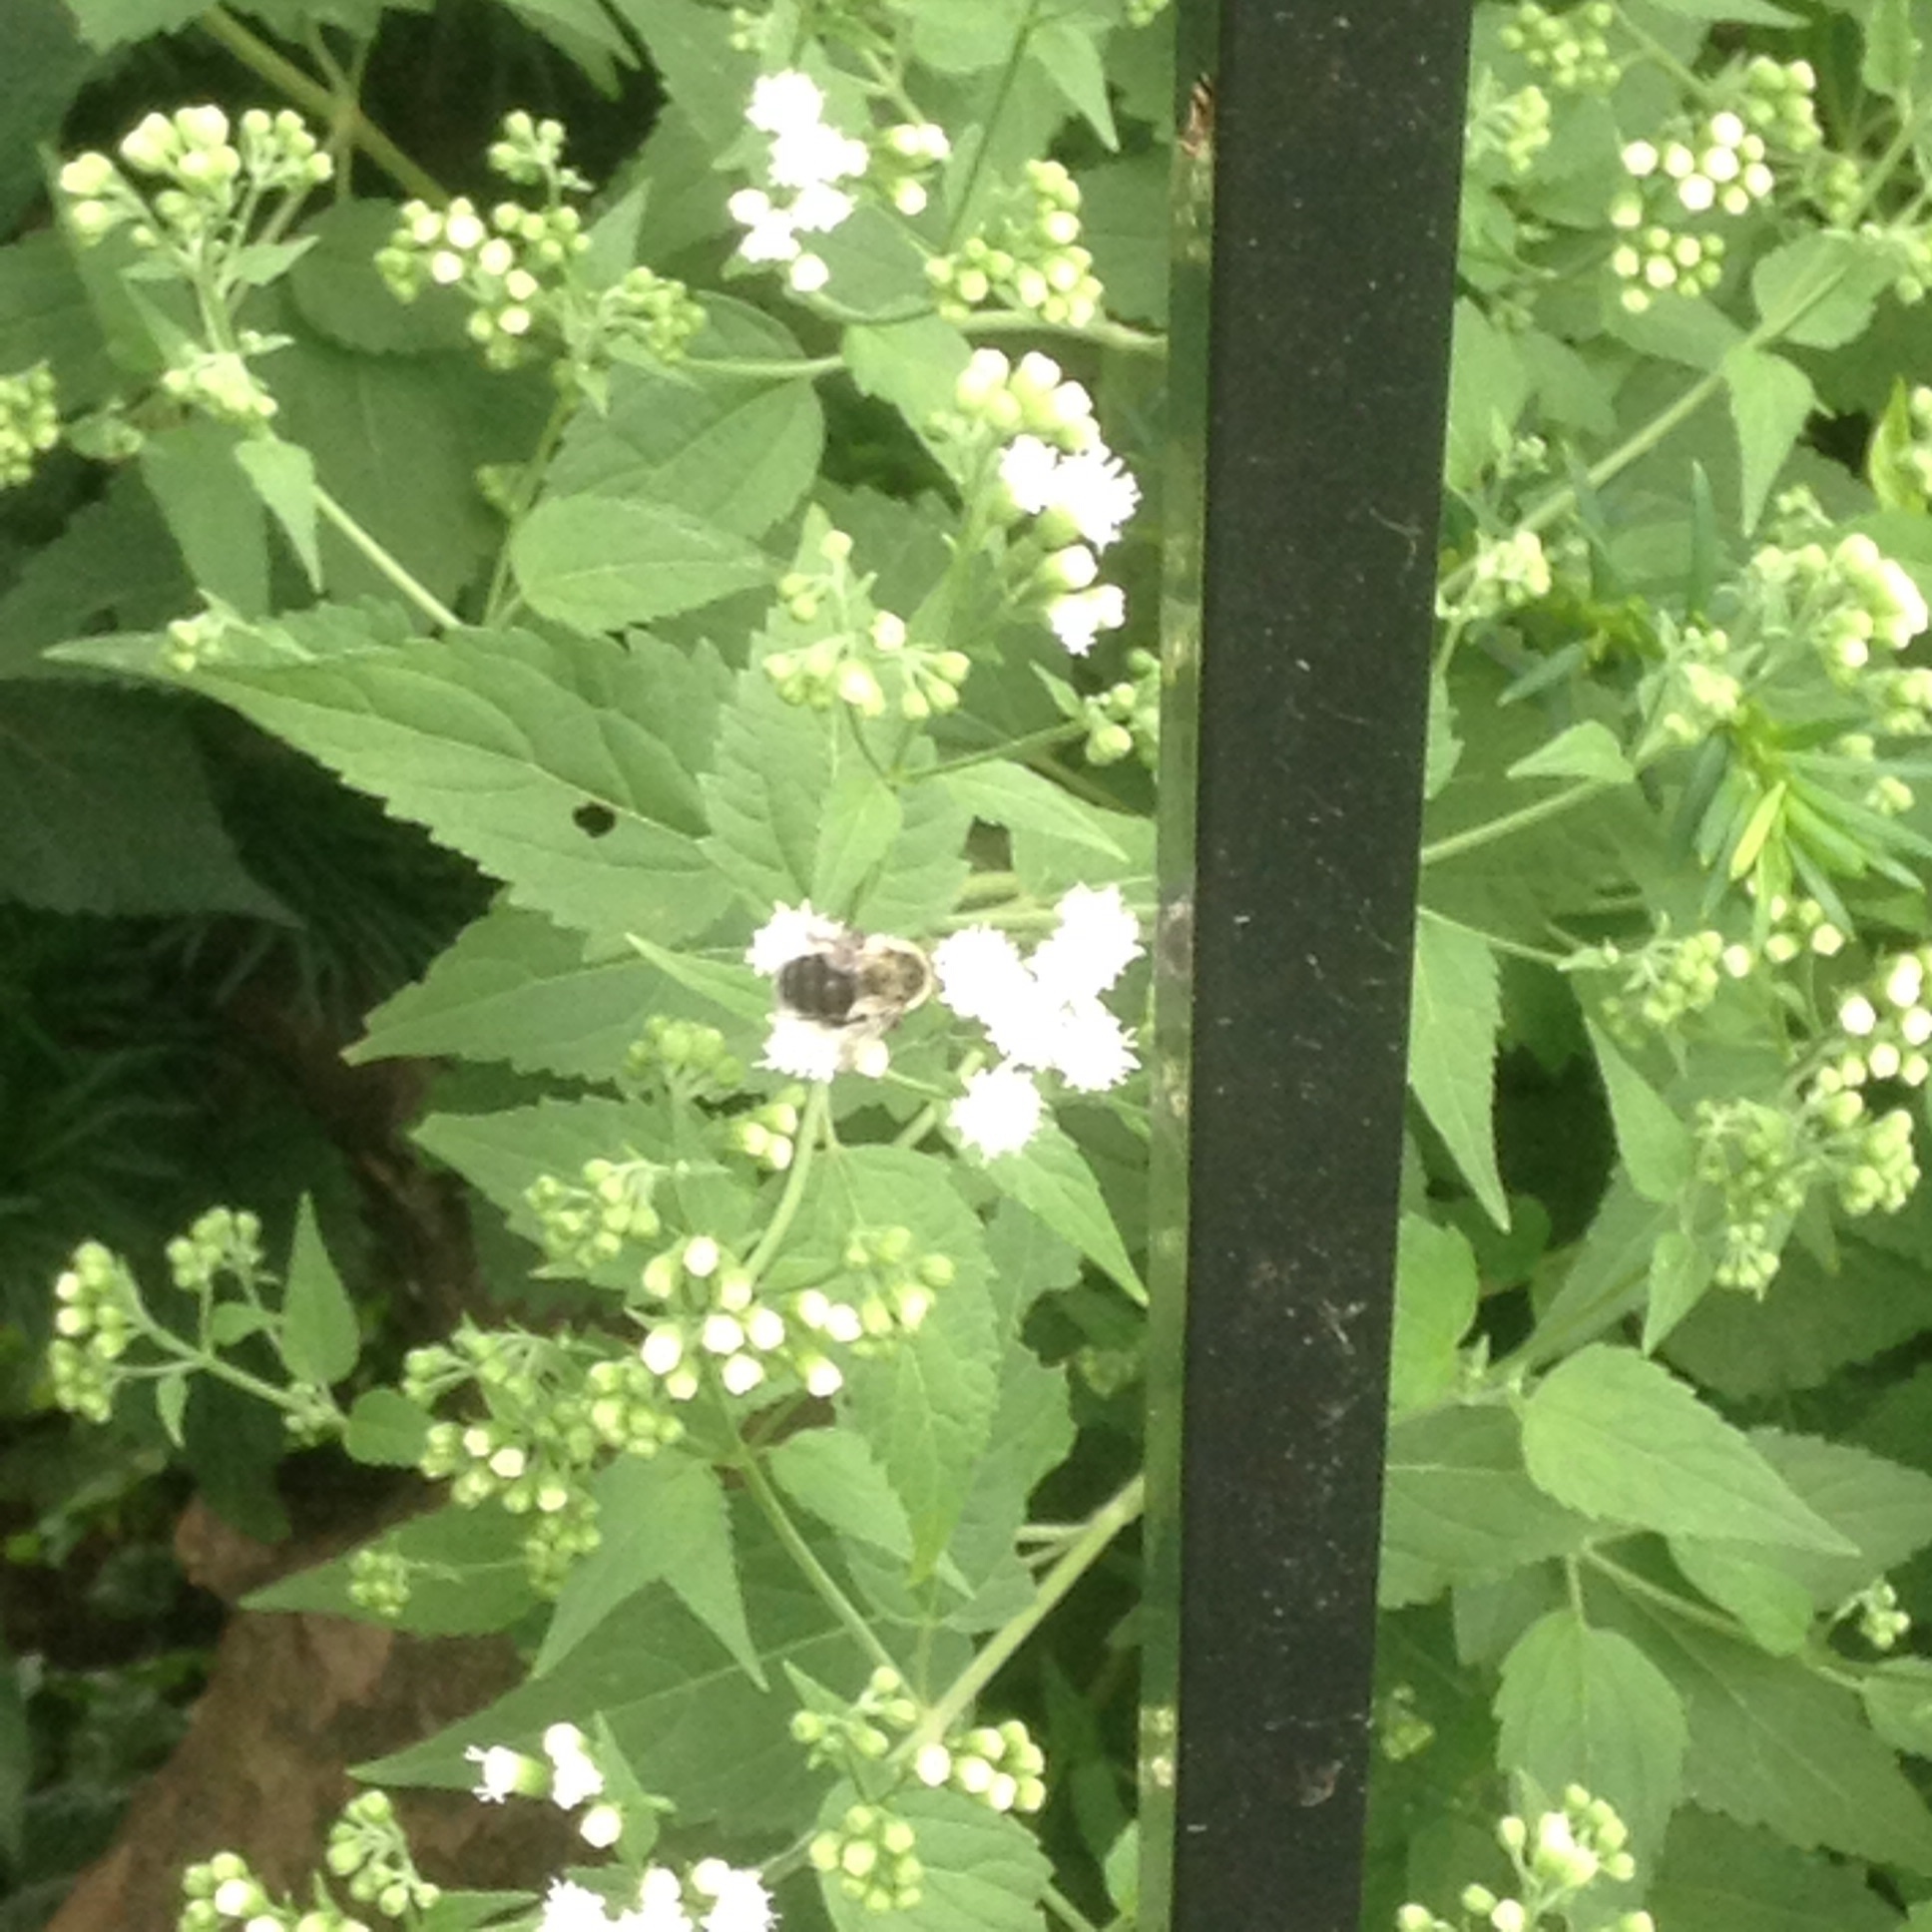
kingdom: Animalia
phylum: Arthropoda
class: Insecta
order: Hymenoptera
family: Apidae
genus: Bombus
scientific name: Bombus impatiens
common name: Common eastern bumble bee
